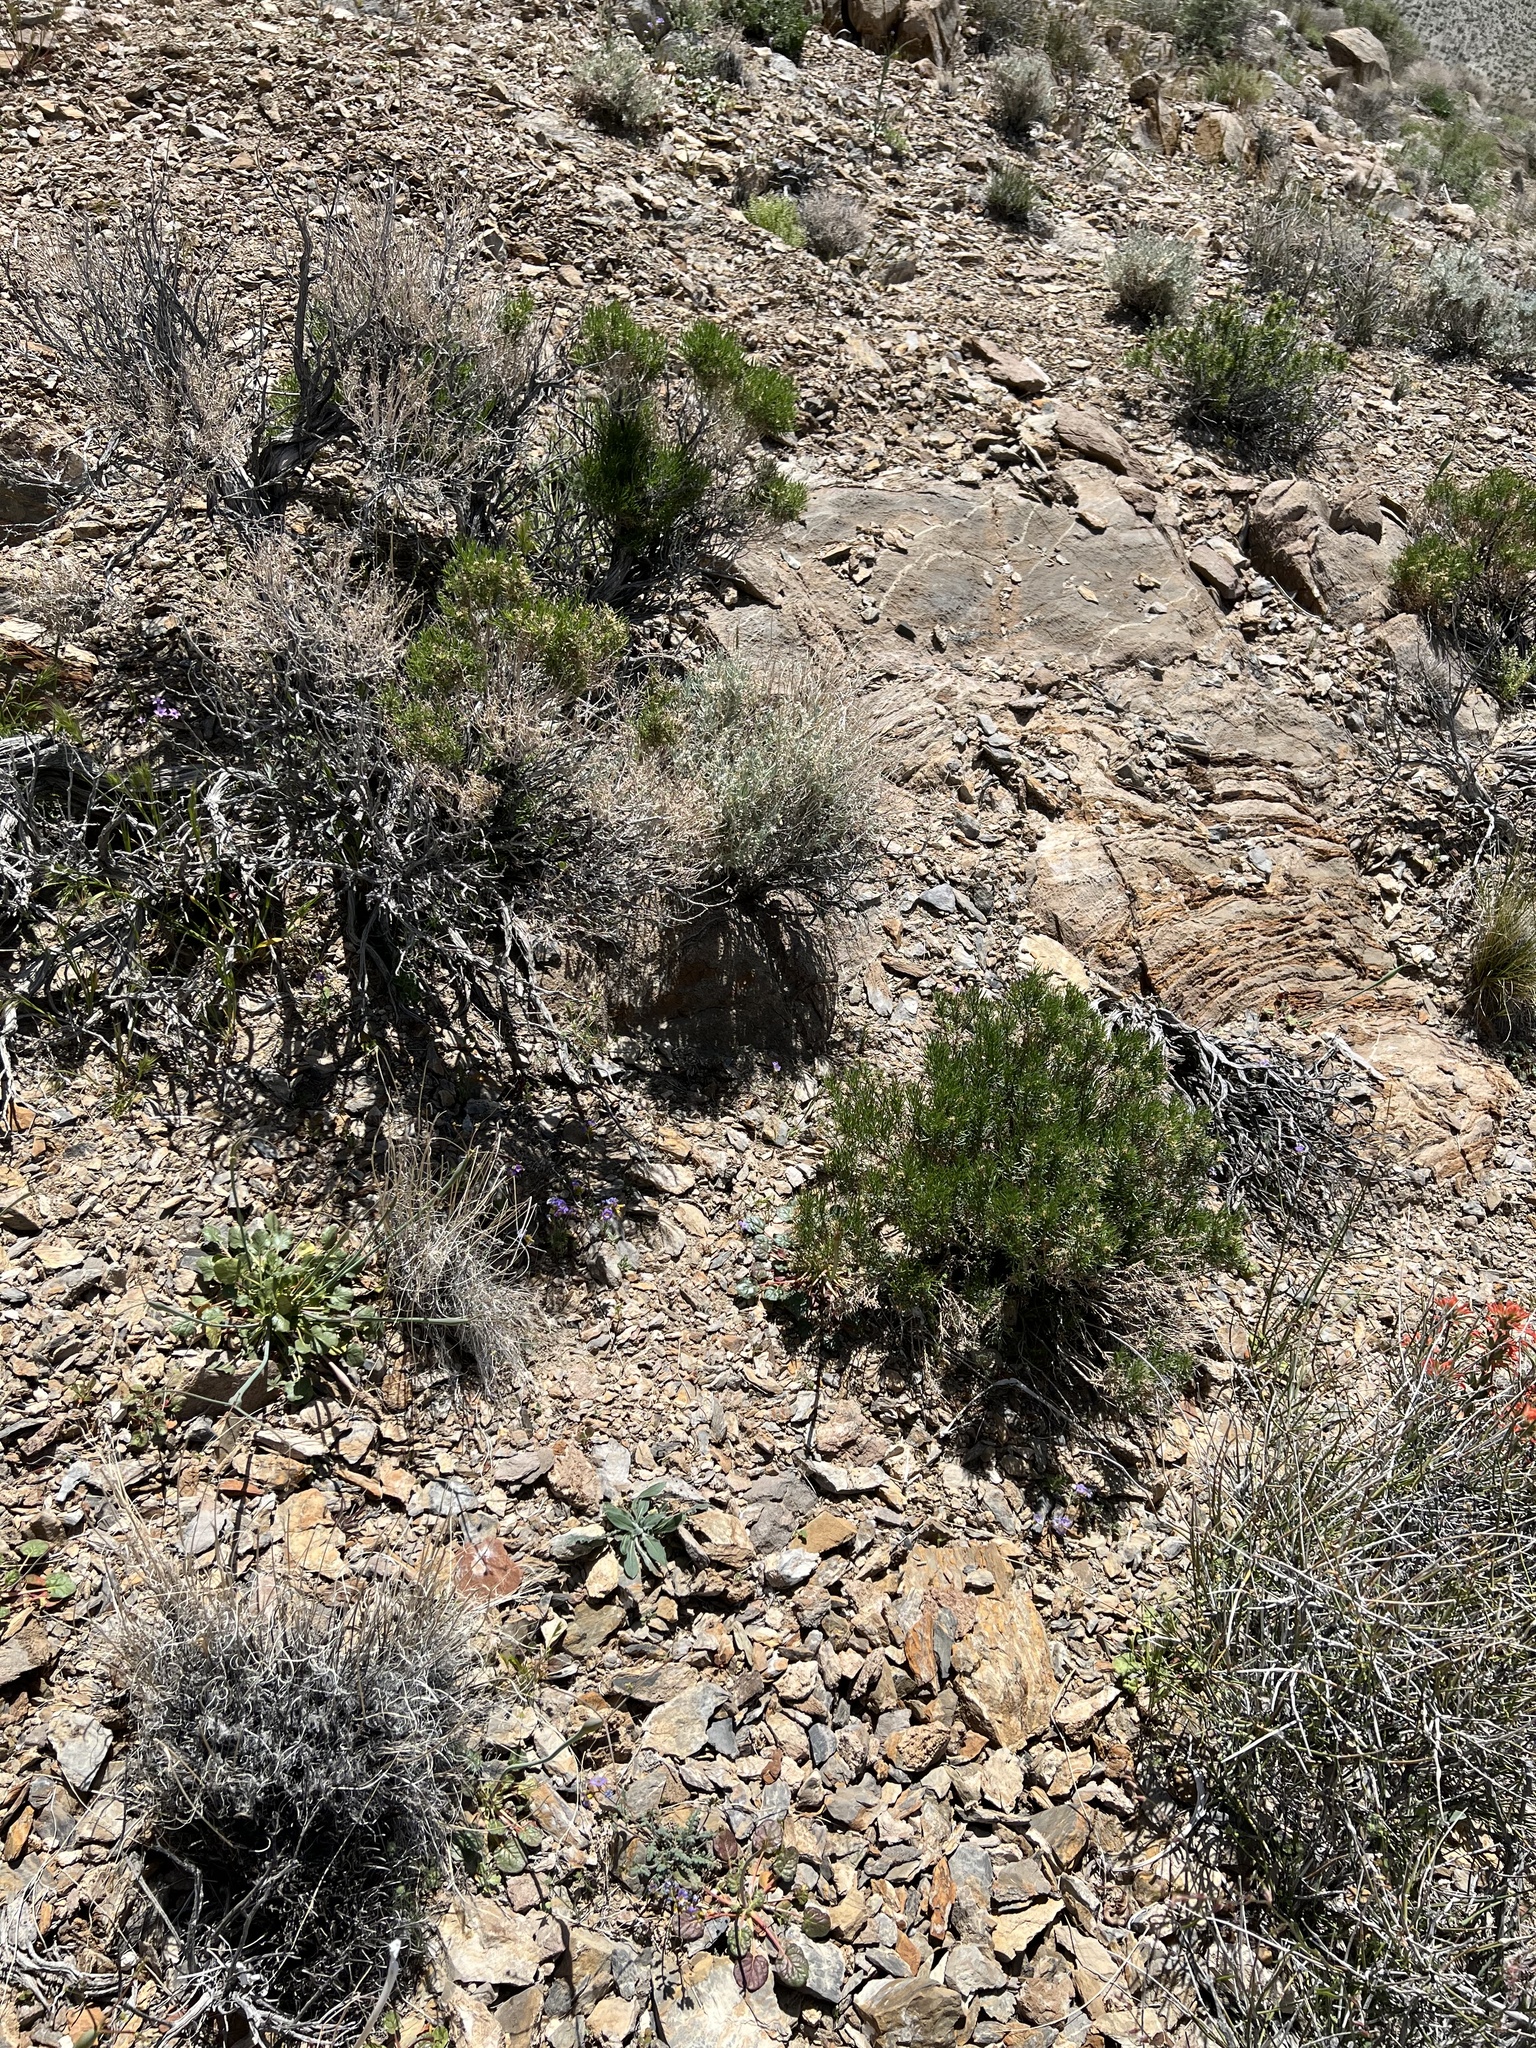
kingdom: Plantae
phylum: Tracheophyta
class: Magnoliopsida
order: Asterales
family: Asteraceae
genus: Ericameria
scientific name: Ericameria teretifolia
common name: Round-leaf rabbitbrush
